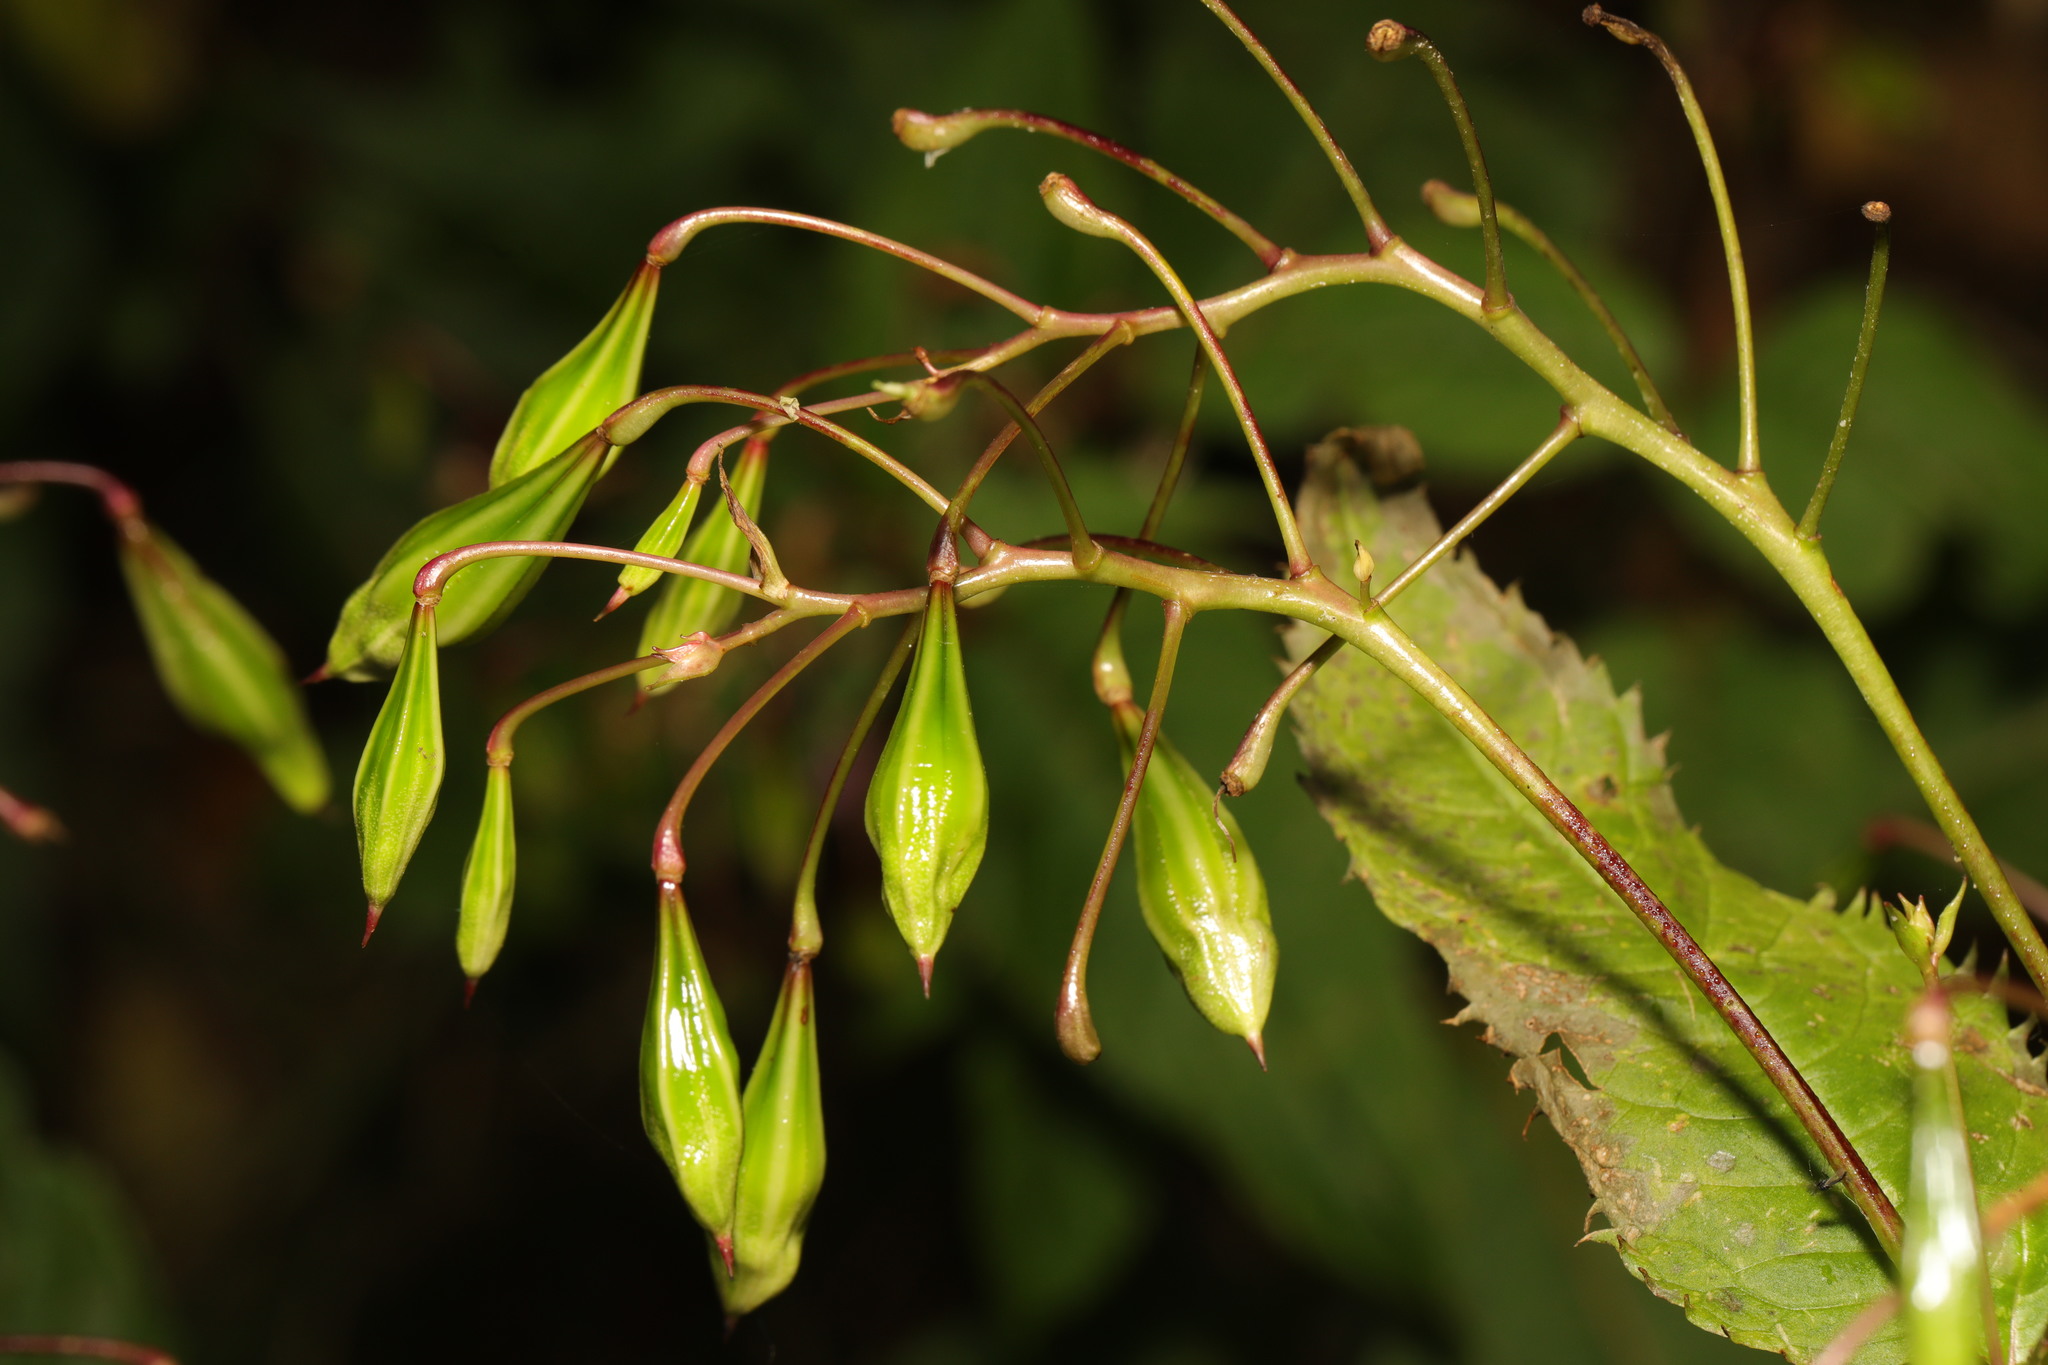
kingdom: Plantae
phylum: Tracheophyta
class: Magnoliopsida
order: Ericales
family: Balsaminaceae
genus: Impatiens
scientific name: Impatiens glandulifera
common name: Himalayan balsam
